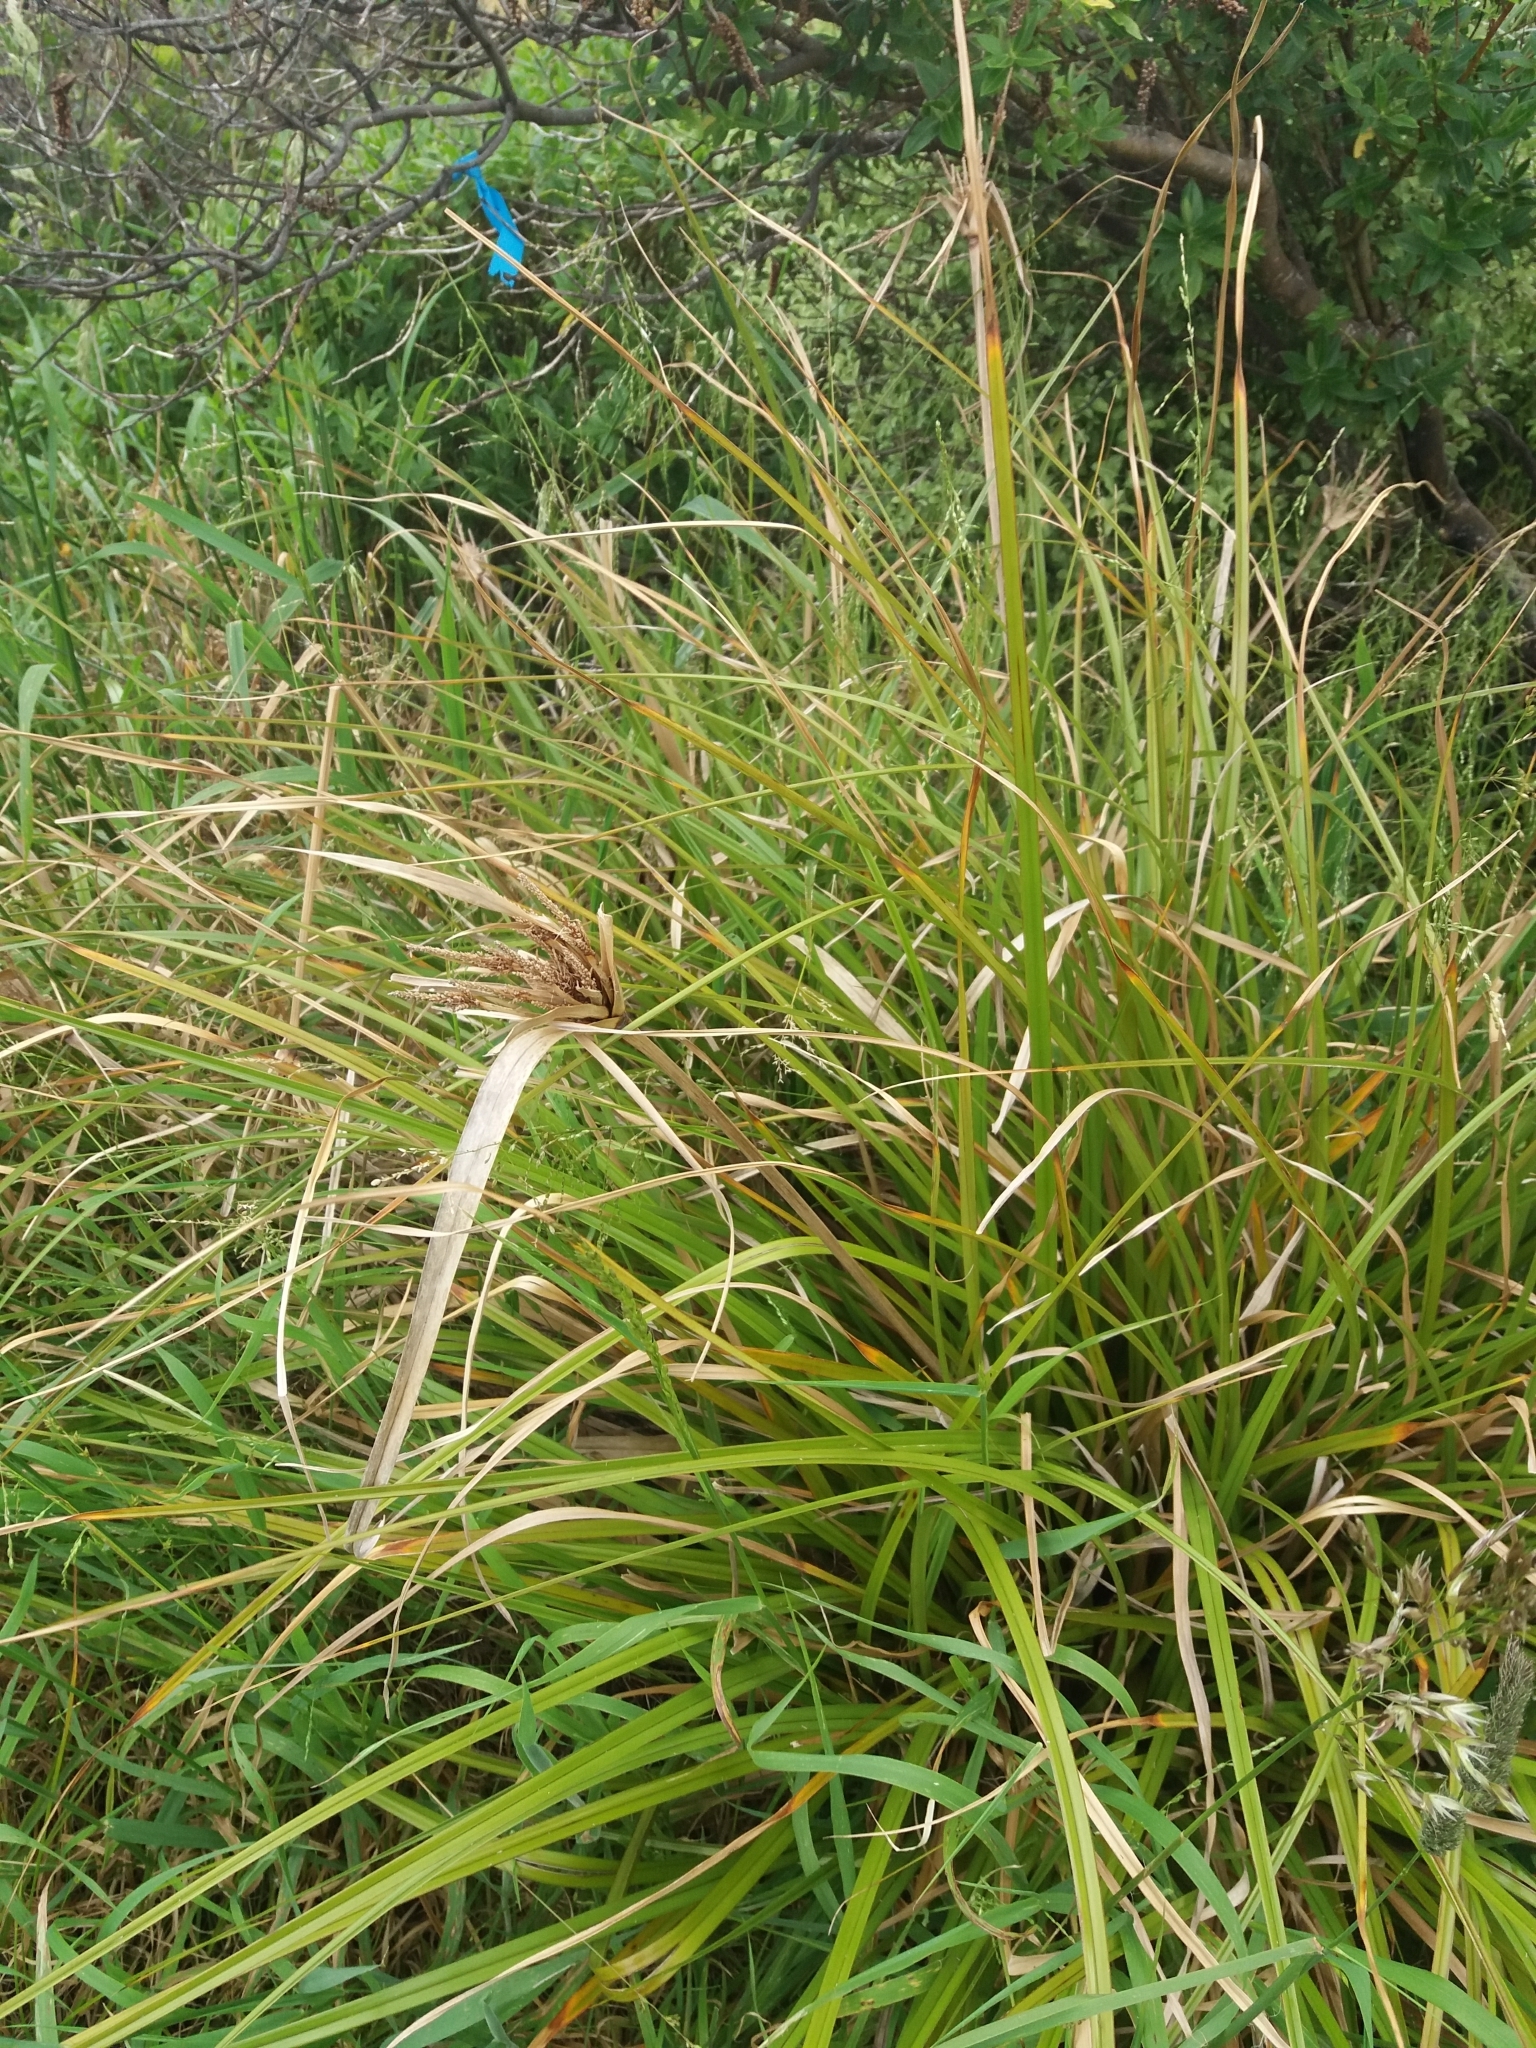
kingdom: Plantae
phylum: Tracheophyta
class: Liliopsida
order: Poales
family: Cyperaceae
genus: Cyperus
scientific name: Cyperus ustulatus
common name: Giant umbrella-sedge
